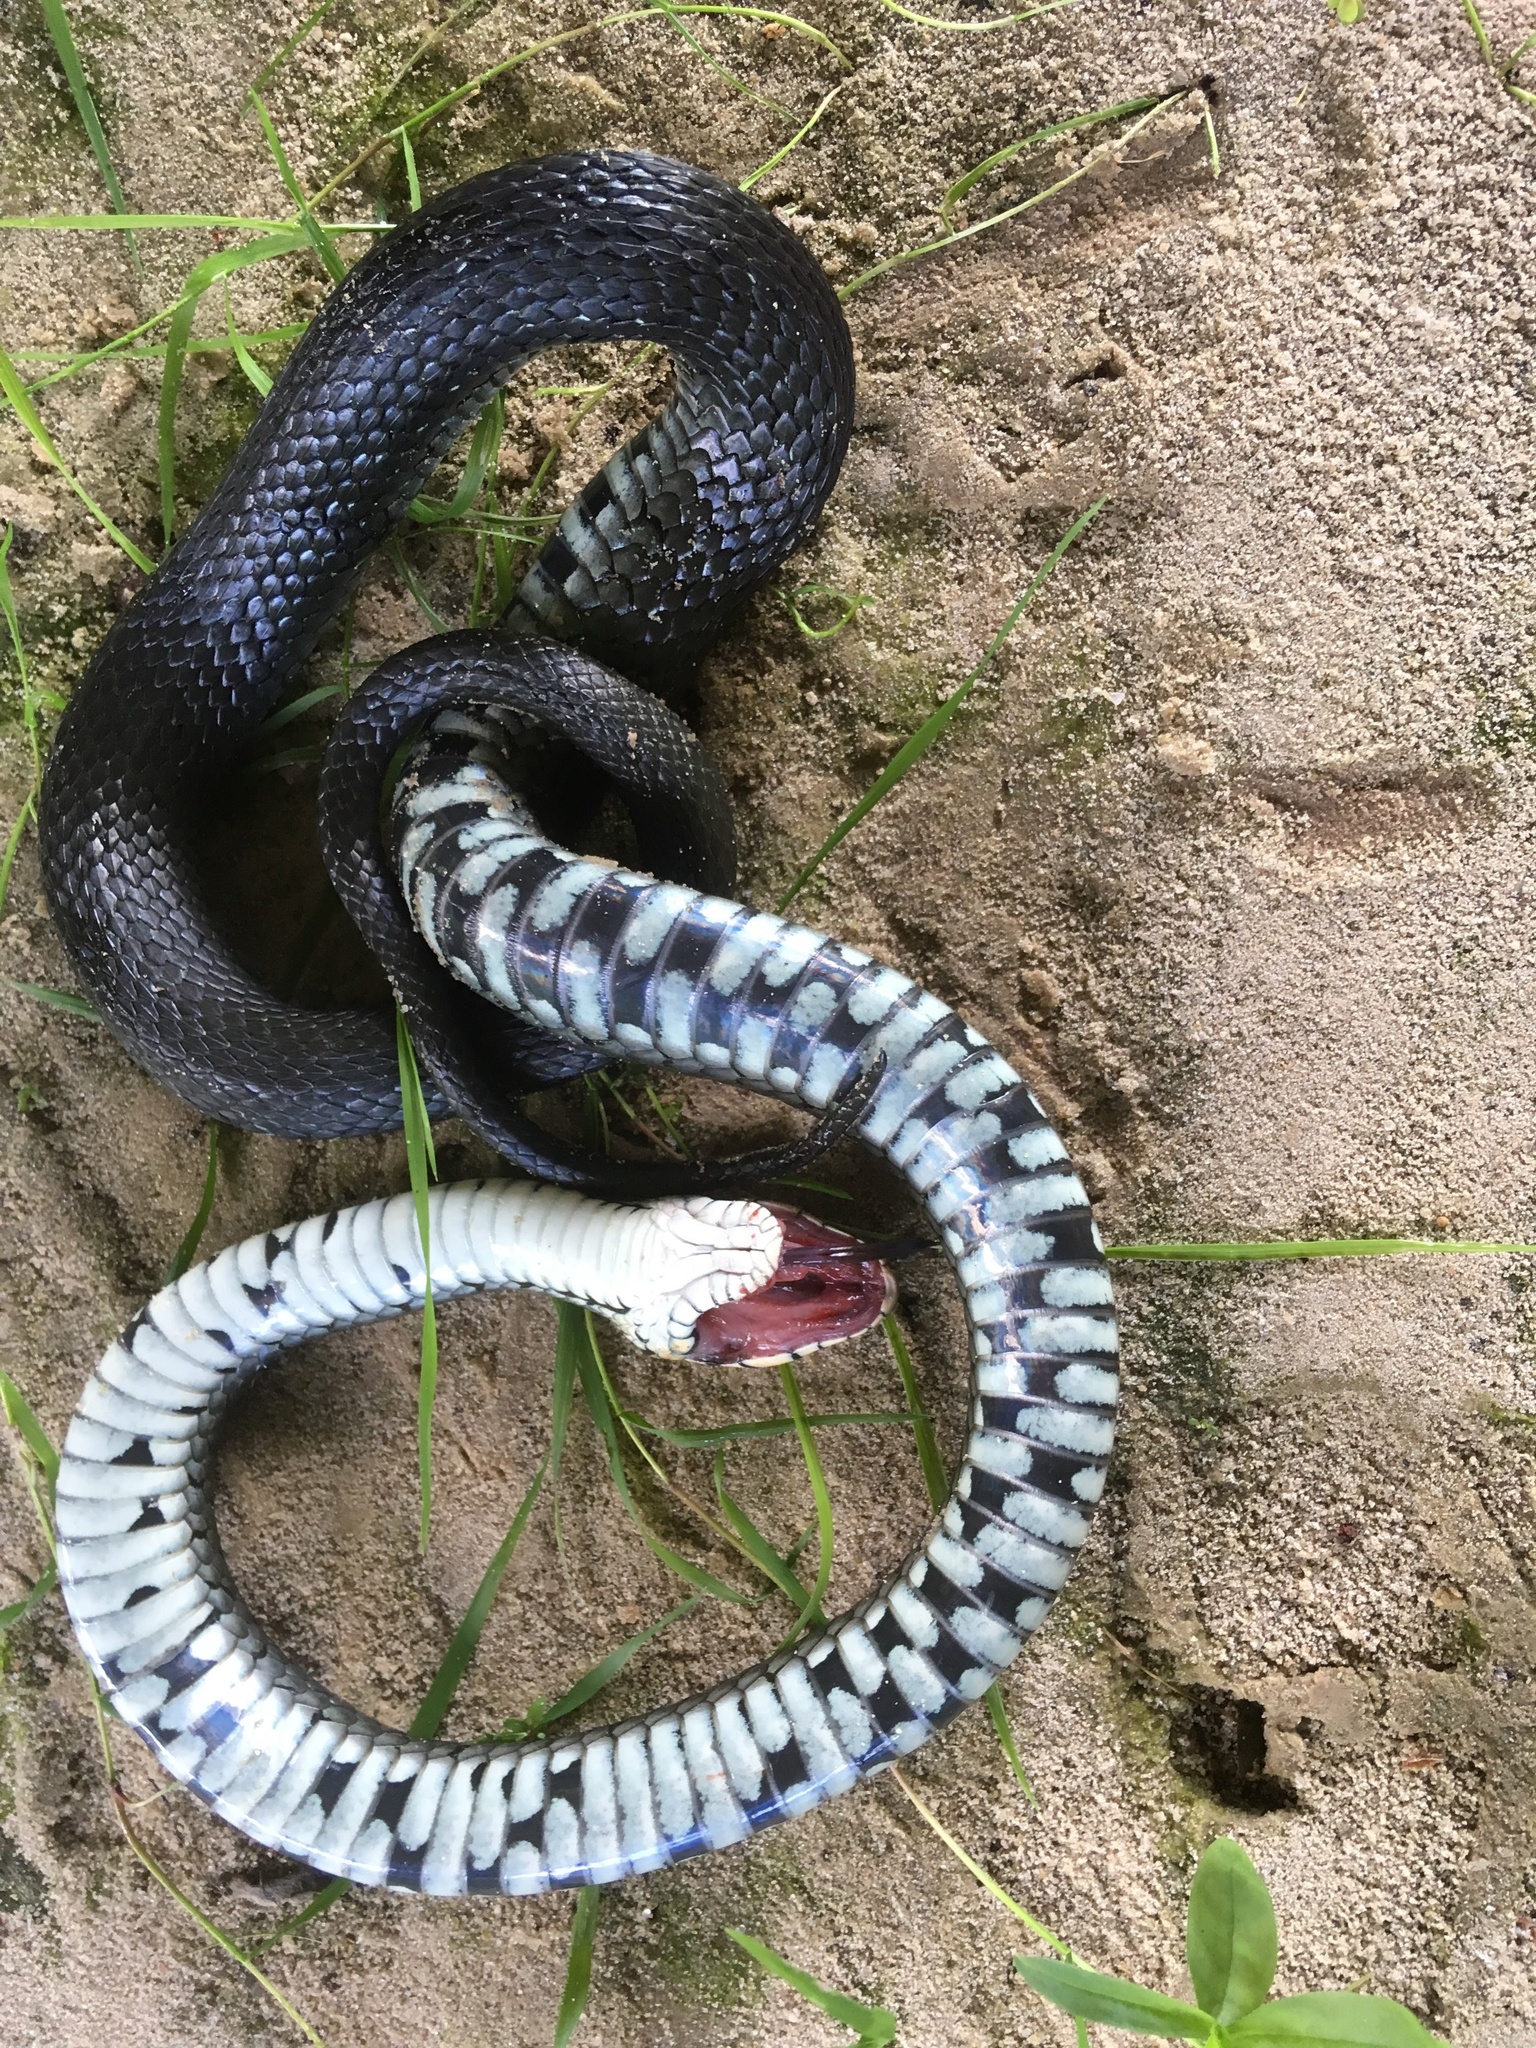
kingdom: Animalia
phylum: Chordata
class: Squamata
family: Colubridae
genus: Natrix
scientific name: Natrix natrix
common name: Grass snake
